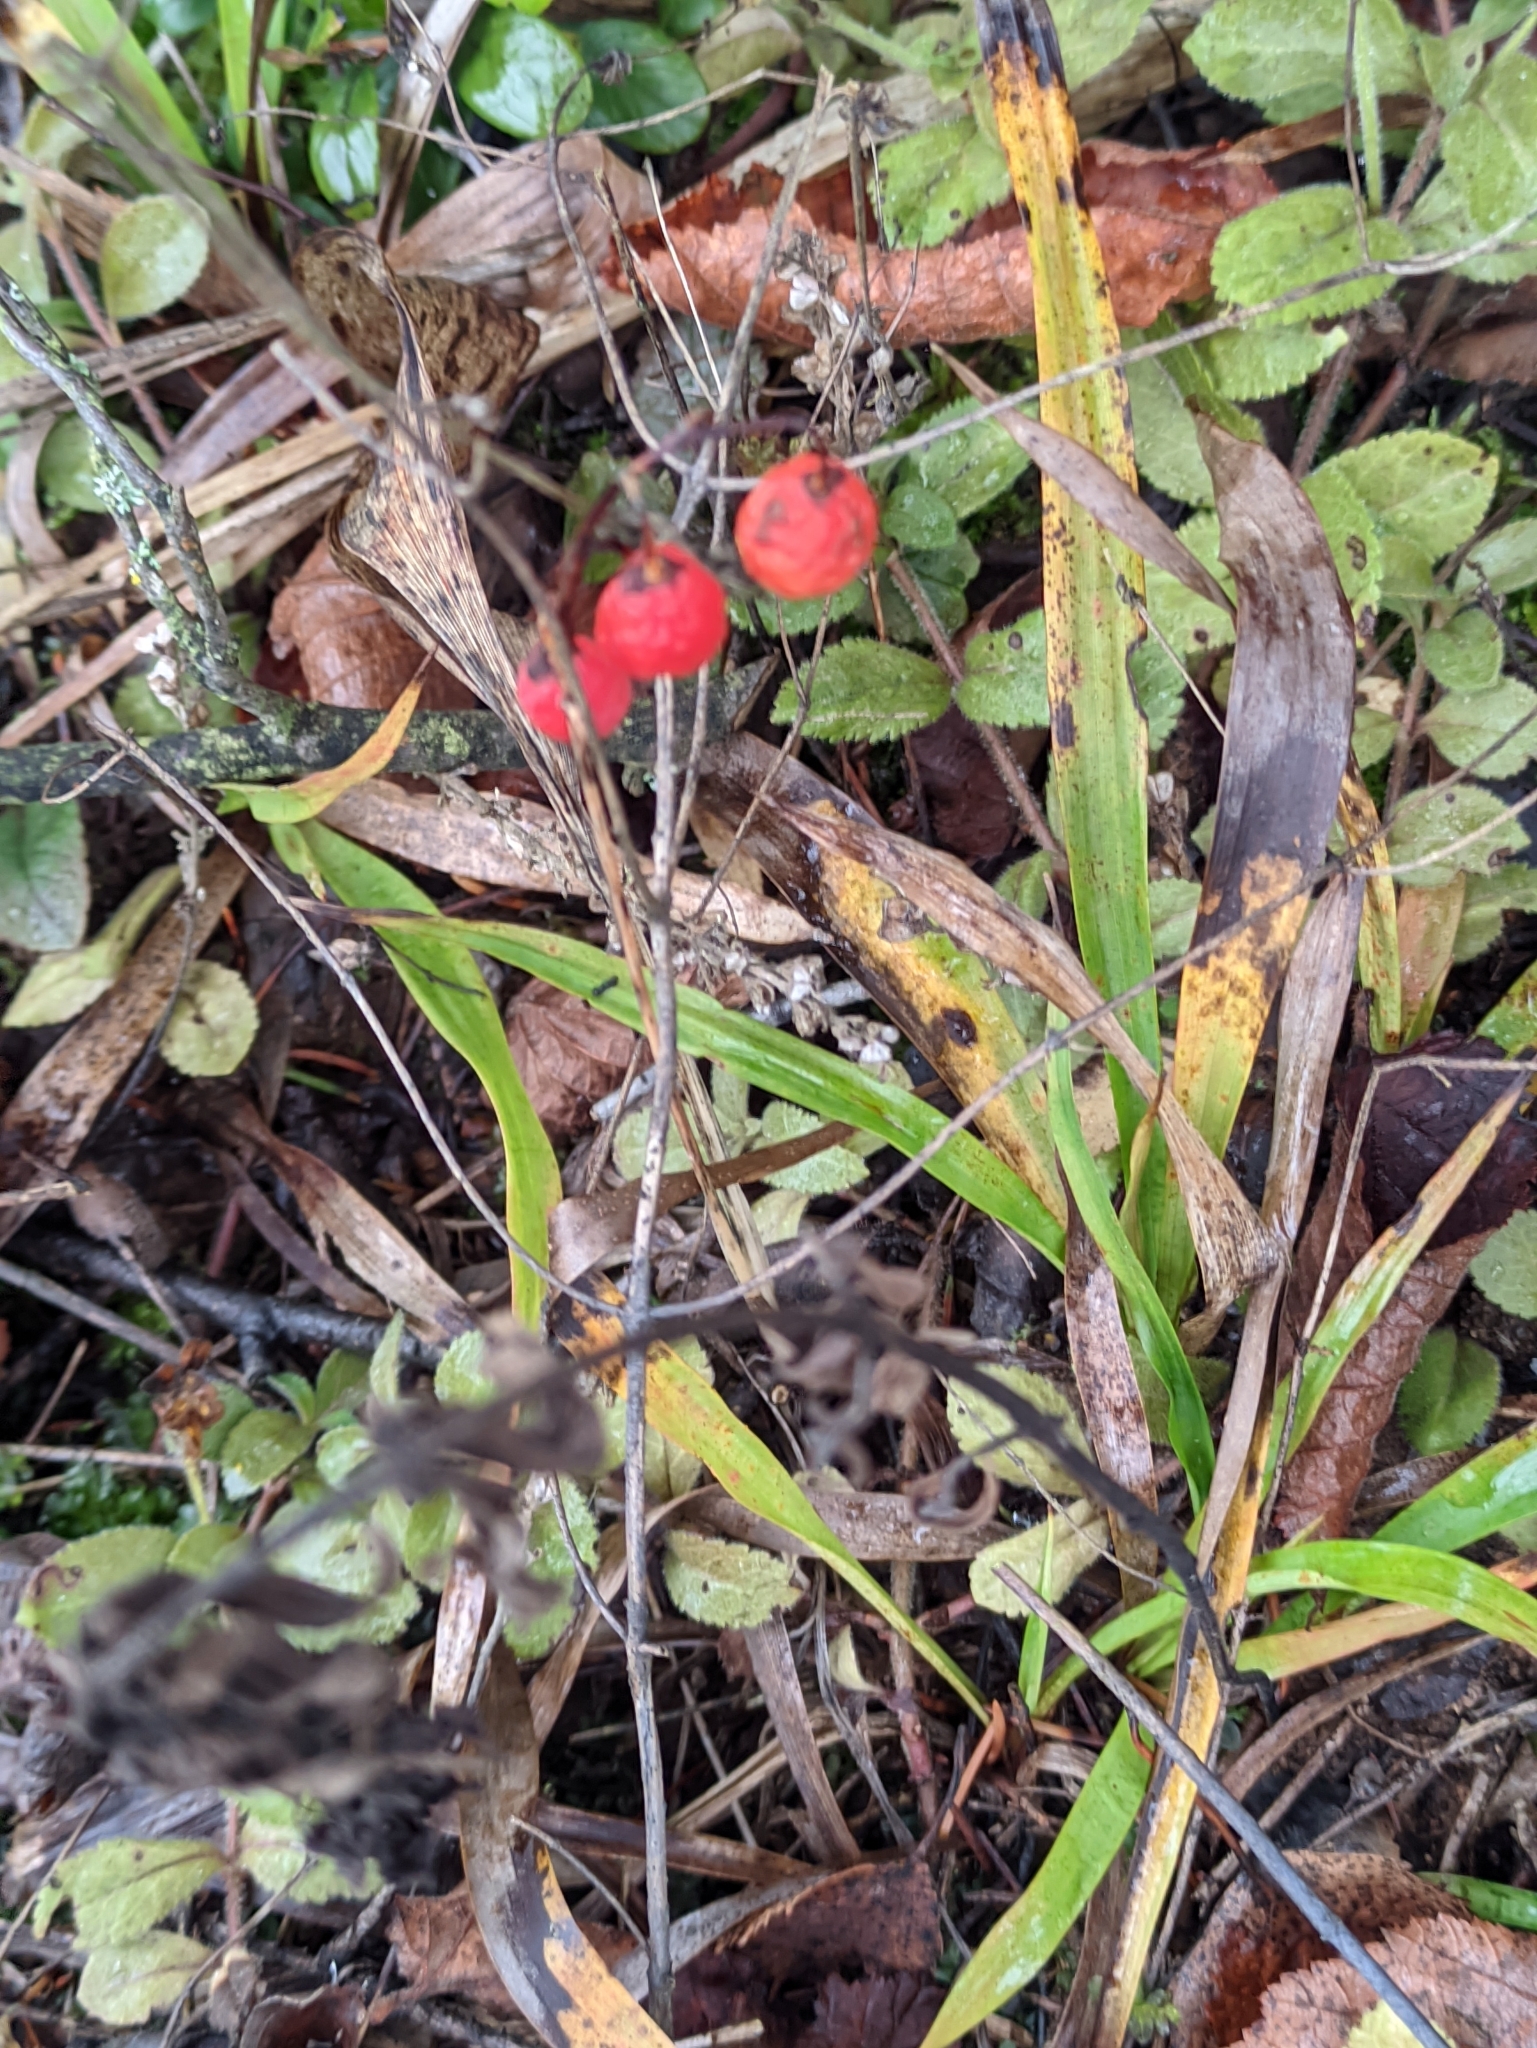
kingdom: Plantae
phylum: Tracheophyta
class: Liliopsida
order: Asparagales
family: Asparagaceae
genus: Convallaria
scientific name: Convallaria majalis
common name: Lily-of-the-valley
